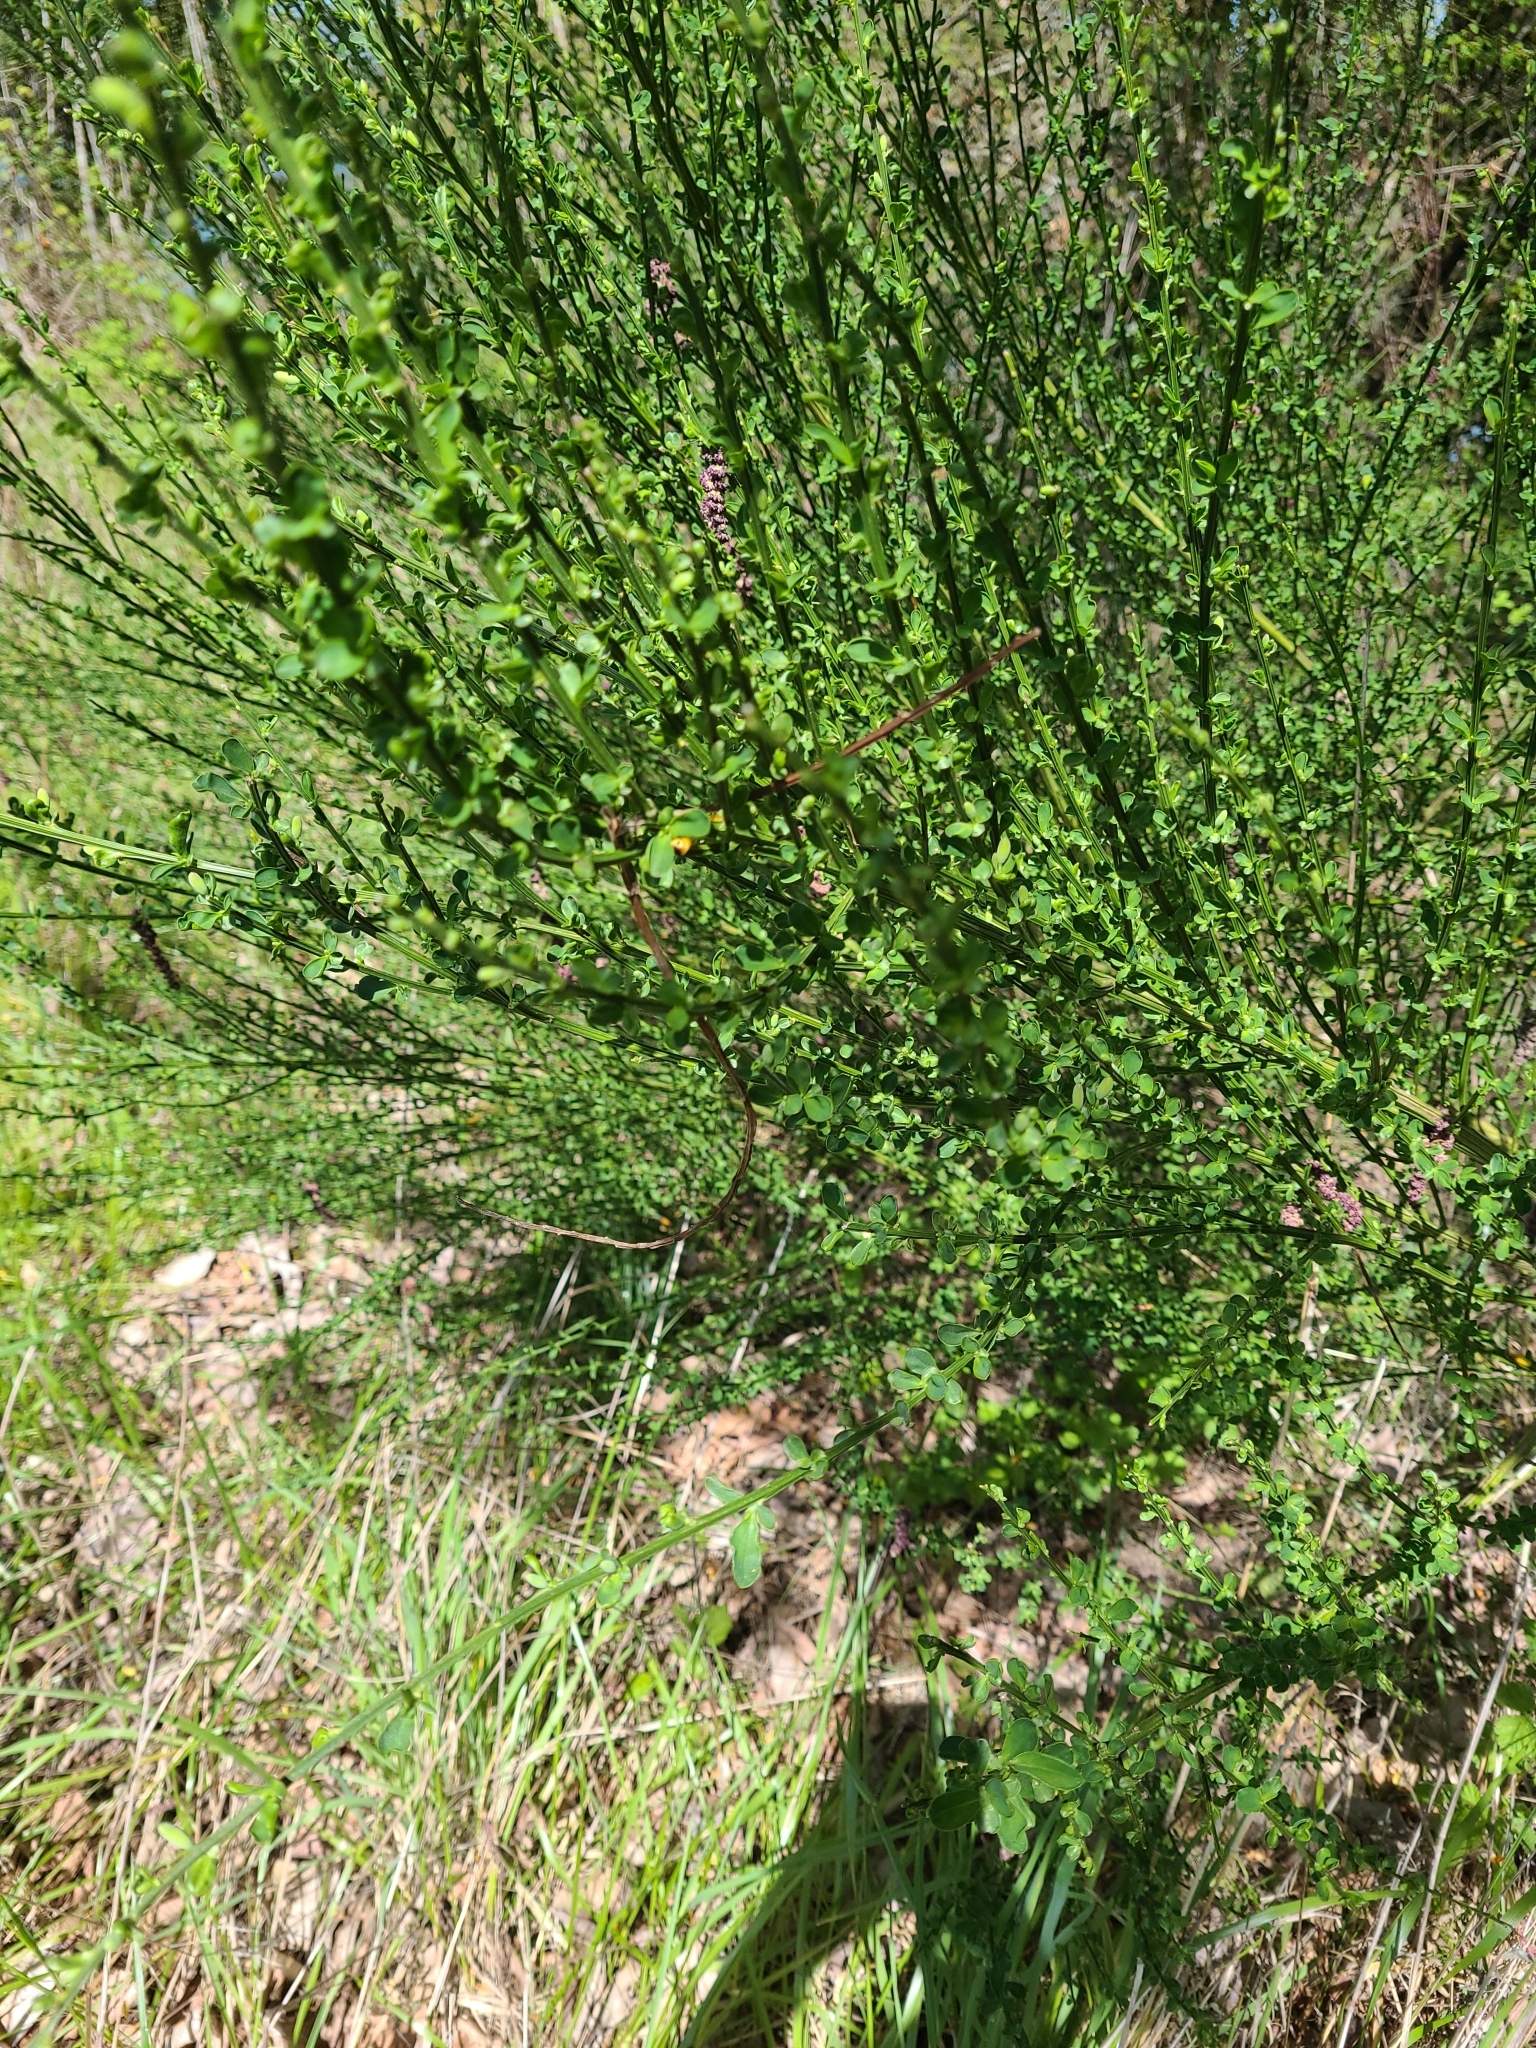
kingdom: Plantae
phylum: Tracheophyta
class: Magnoliopsida
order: Fabales
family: Fabaceae
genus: Cytisus
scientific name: Cytisus scoparius
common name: Scotch broom
